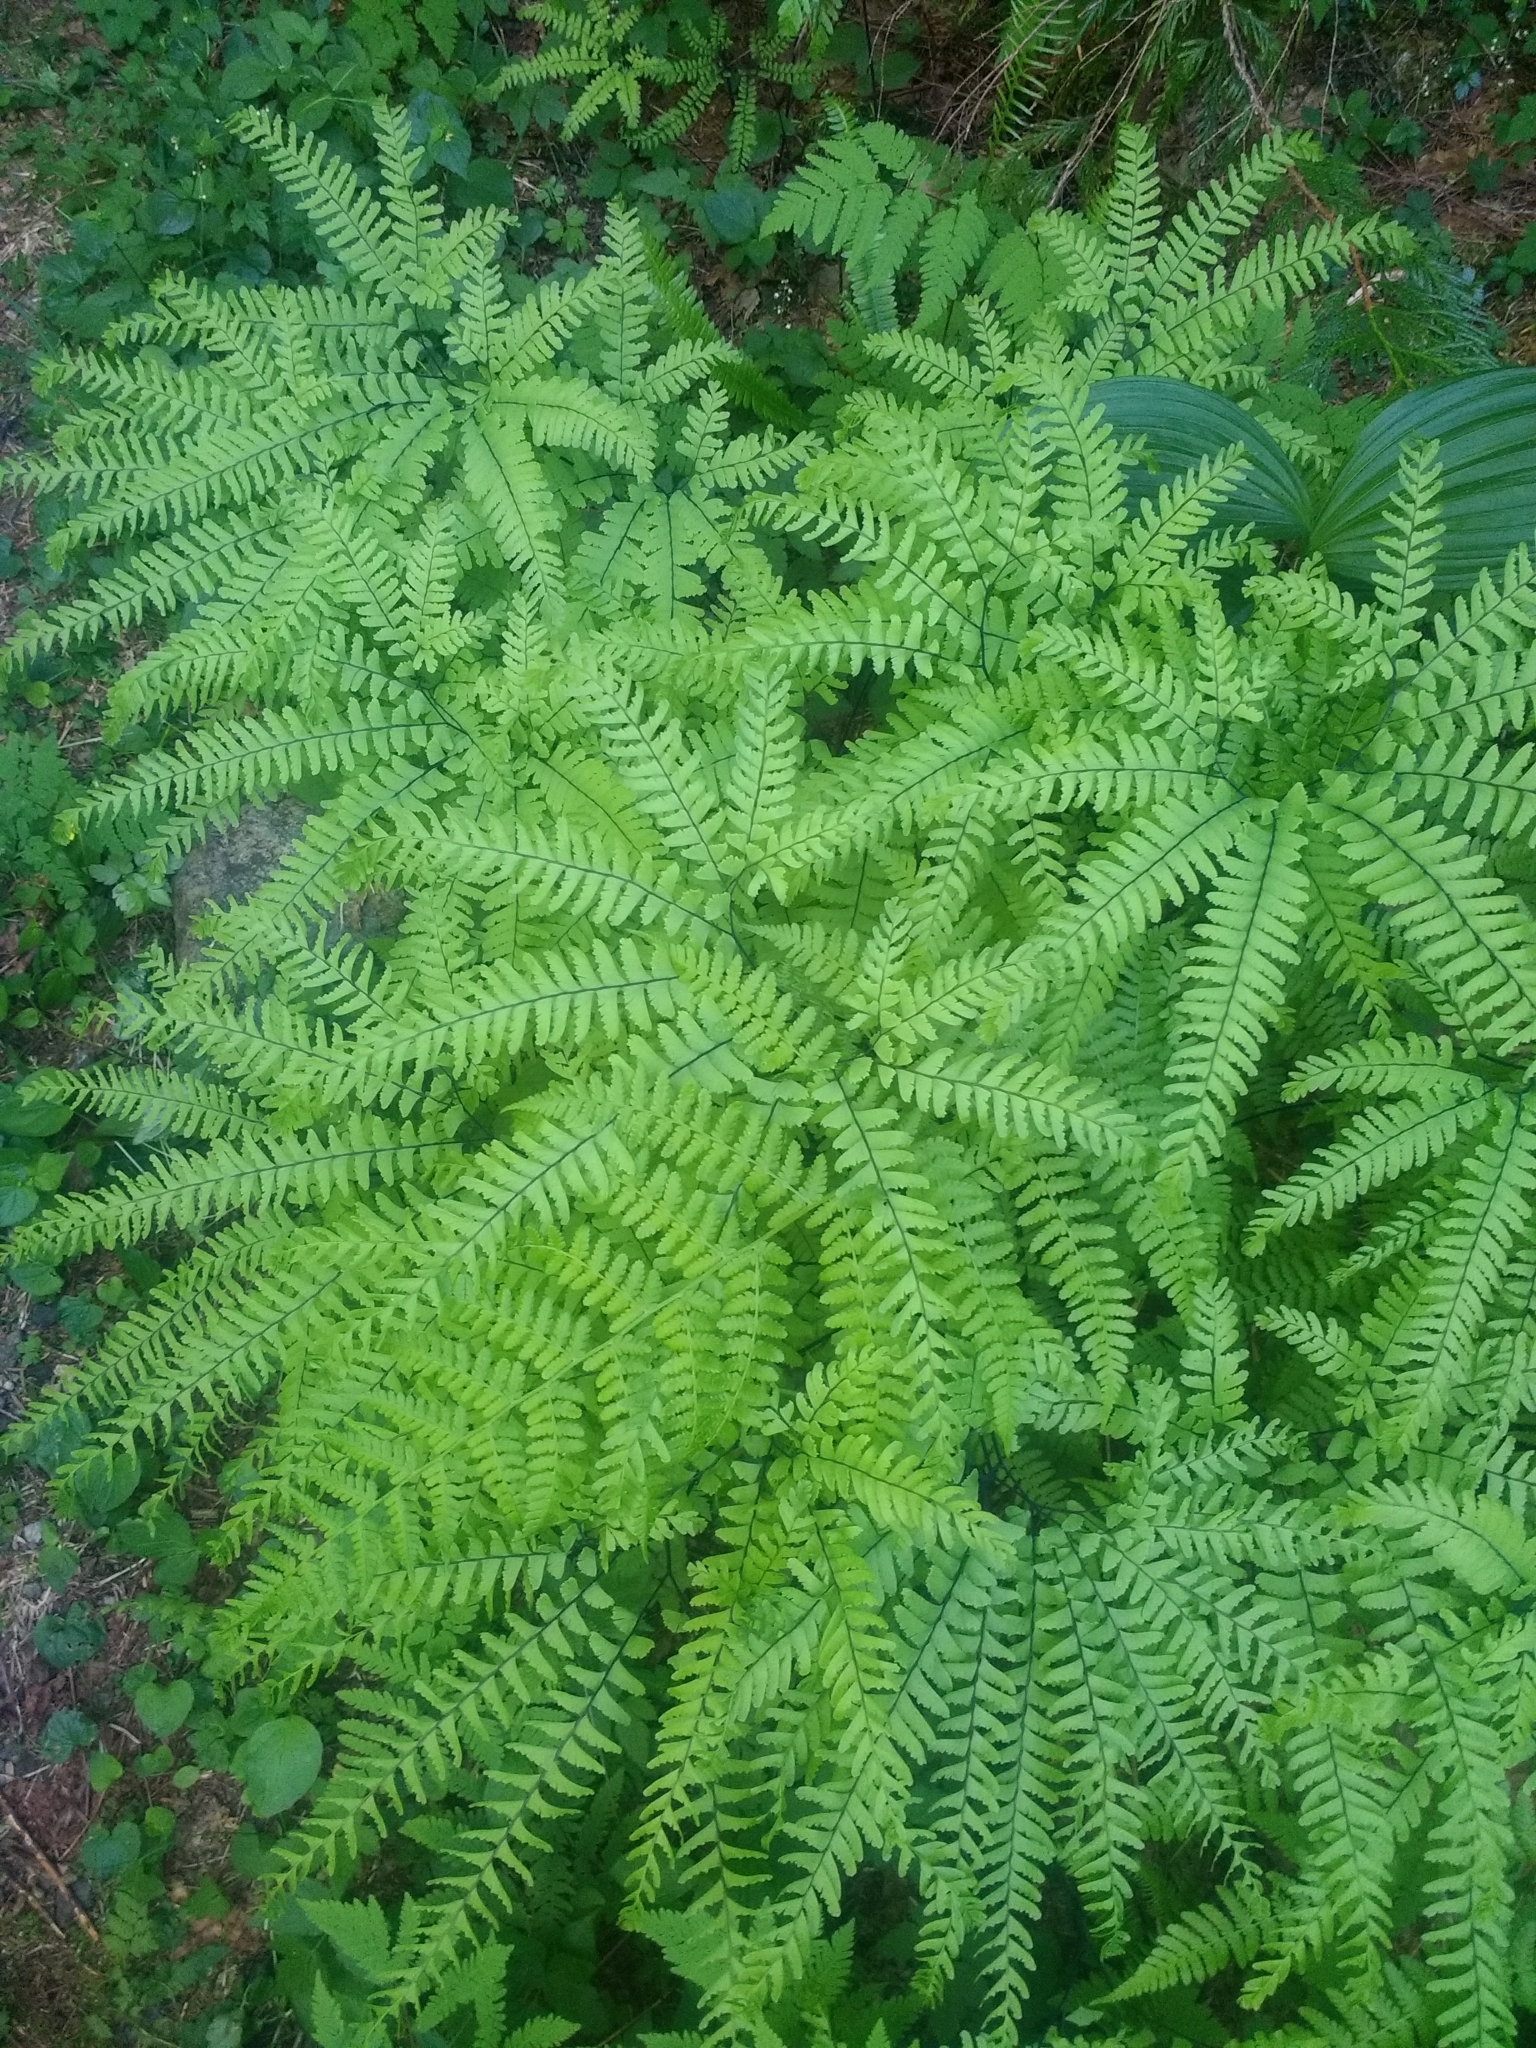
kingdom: Plantae
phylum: Tracheophyta
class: Polypodiopsida
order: Polypodiales
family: Pteridaceae
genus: Adiantum
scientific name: Adiantum aleuticum
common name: Aleutian maidenhair fern
